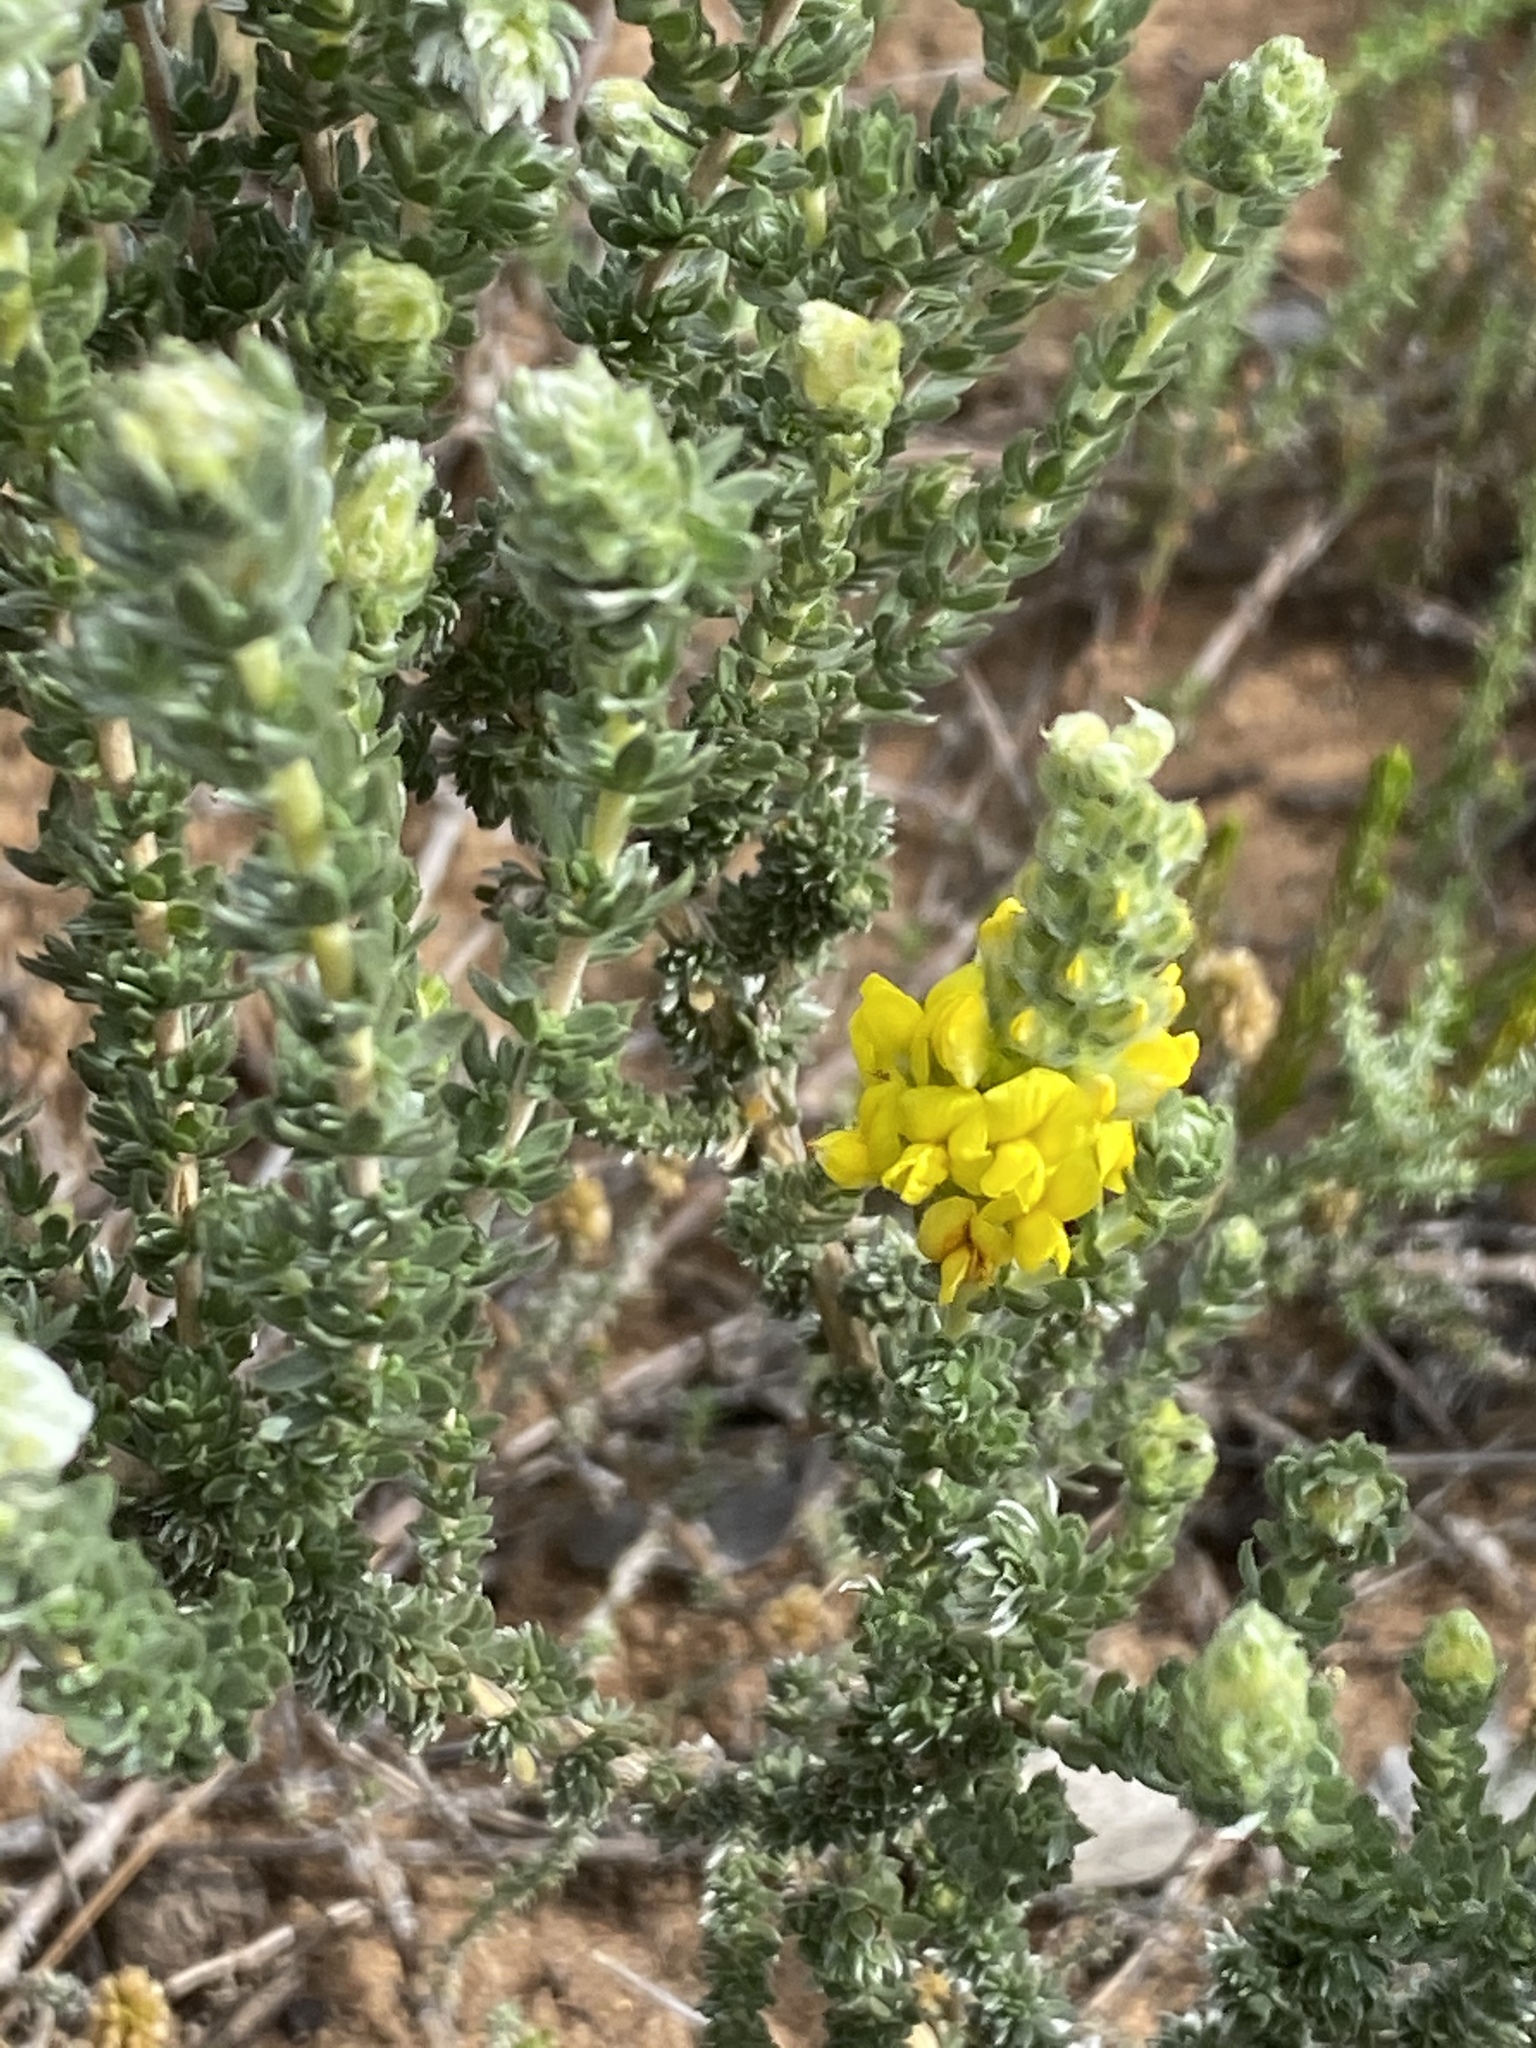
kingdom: Plantae
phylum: Tracheophyta
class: Magnoliopsida
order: Fabales
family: Fabaceae
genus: Aspalathus
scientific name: Aspalathus quinquefolia
